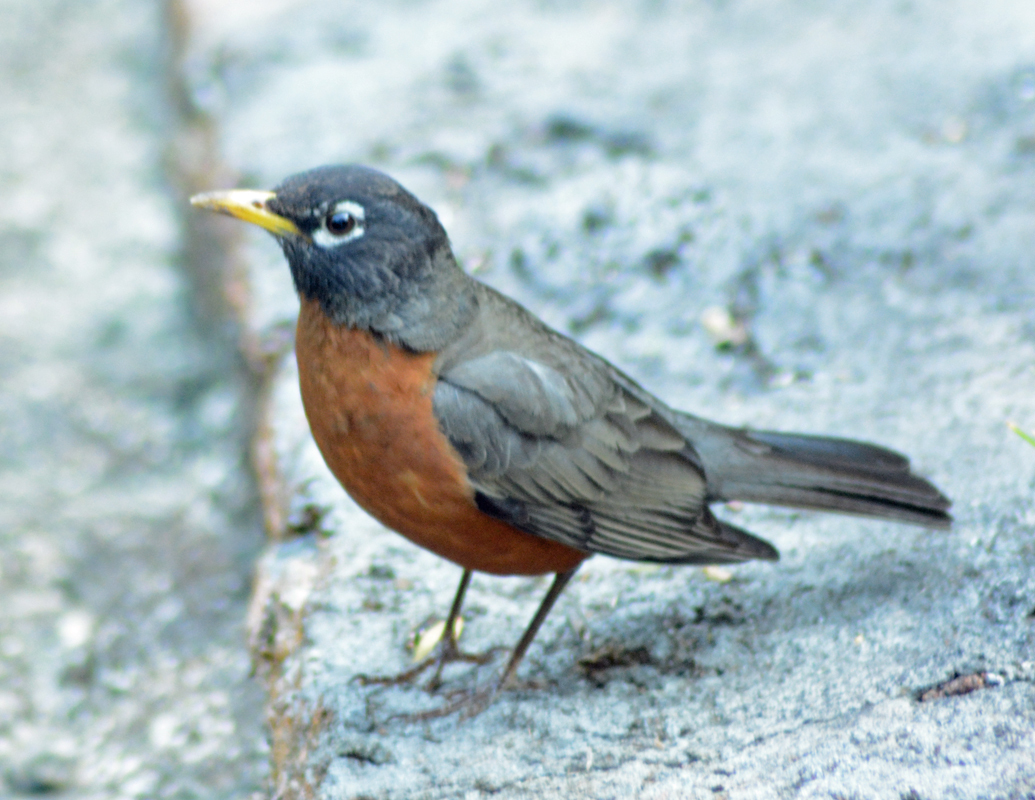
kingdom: Animalia
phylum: Chordata
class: Aves
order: Passeriformes
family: Turdidae
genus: Turdus
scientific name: Turdus migratorius
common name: American robin
